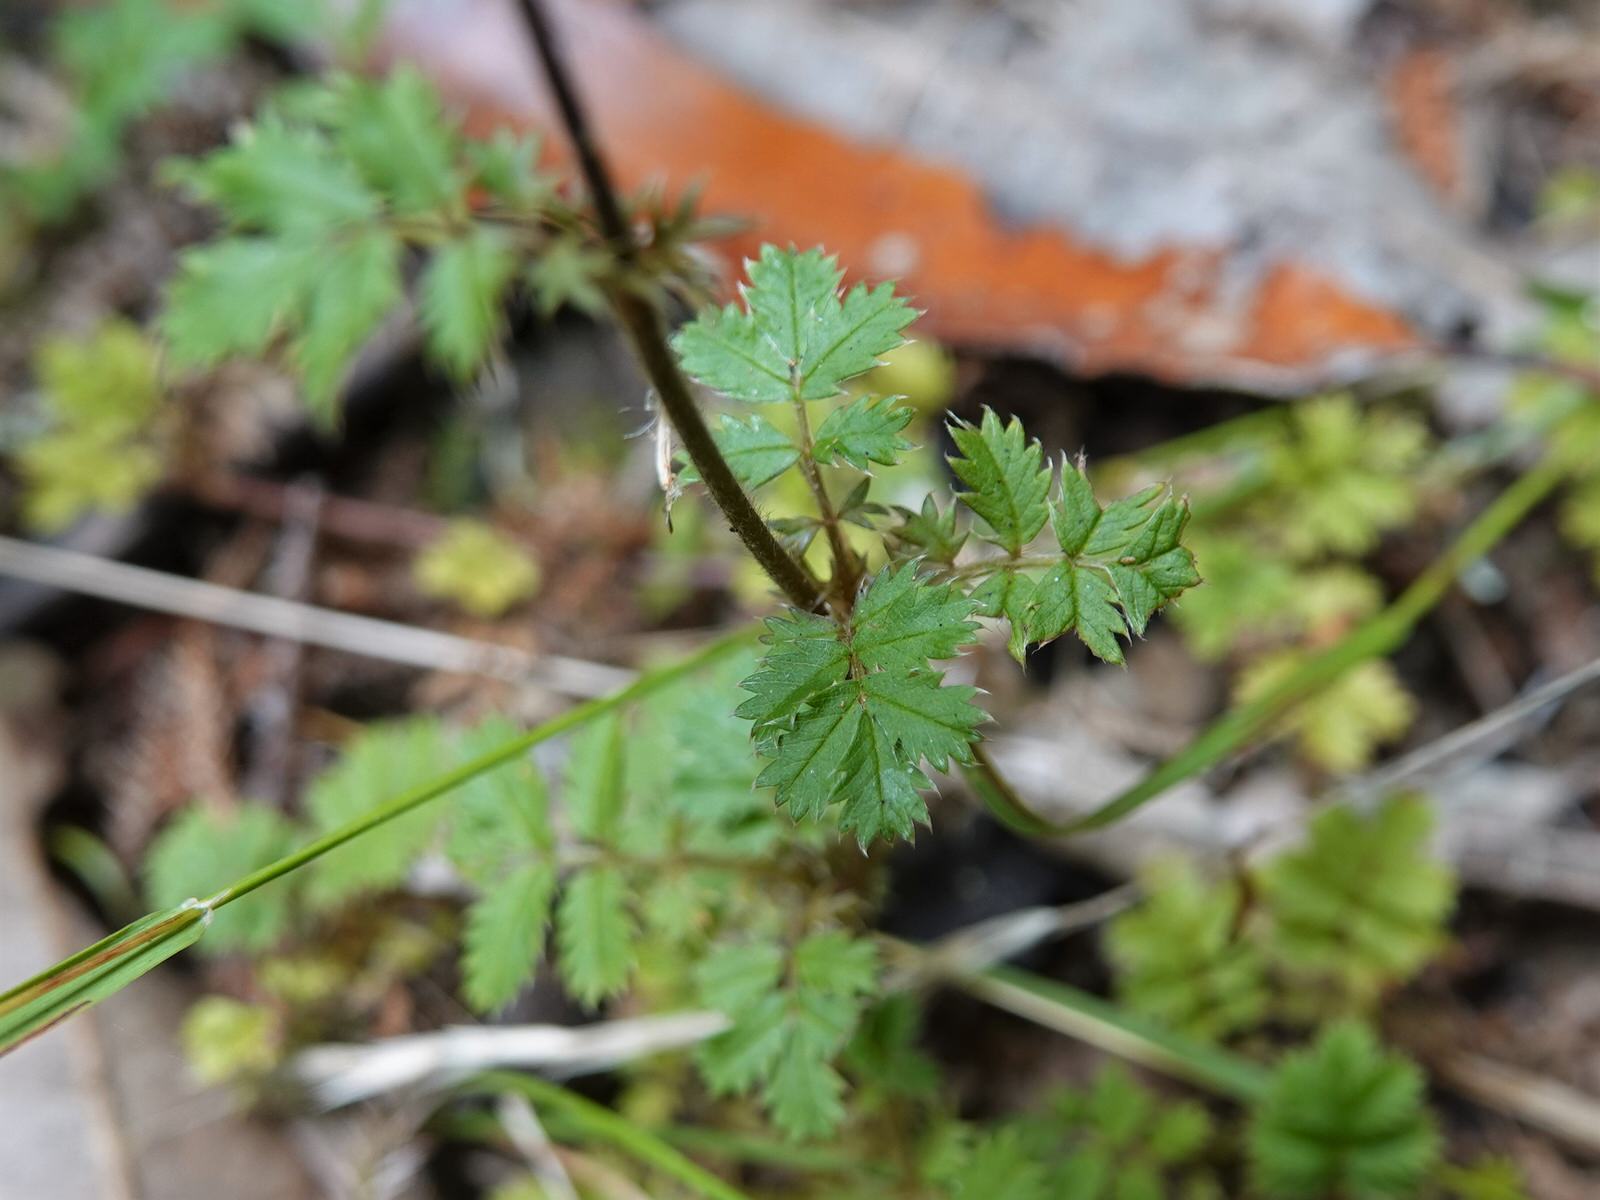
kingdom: Plantae
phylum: Tracheophyta
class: Magnoliopsida
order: Rosales
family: Rosaceae
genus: Acaena
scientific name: Acaena anserinifolia
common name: Bronze pirri-pirri-bur
